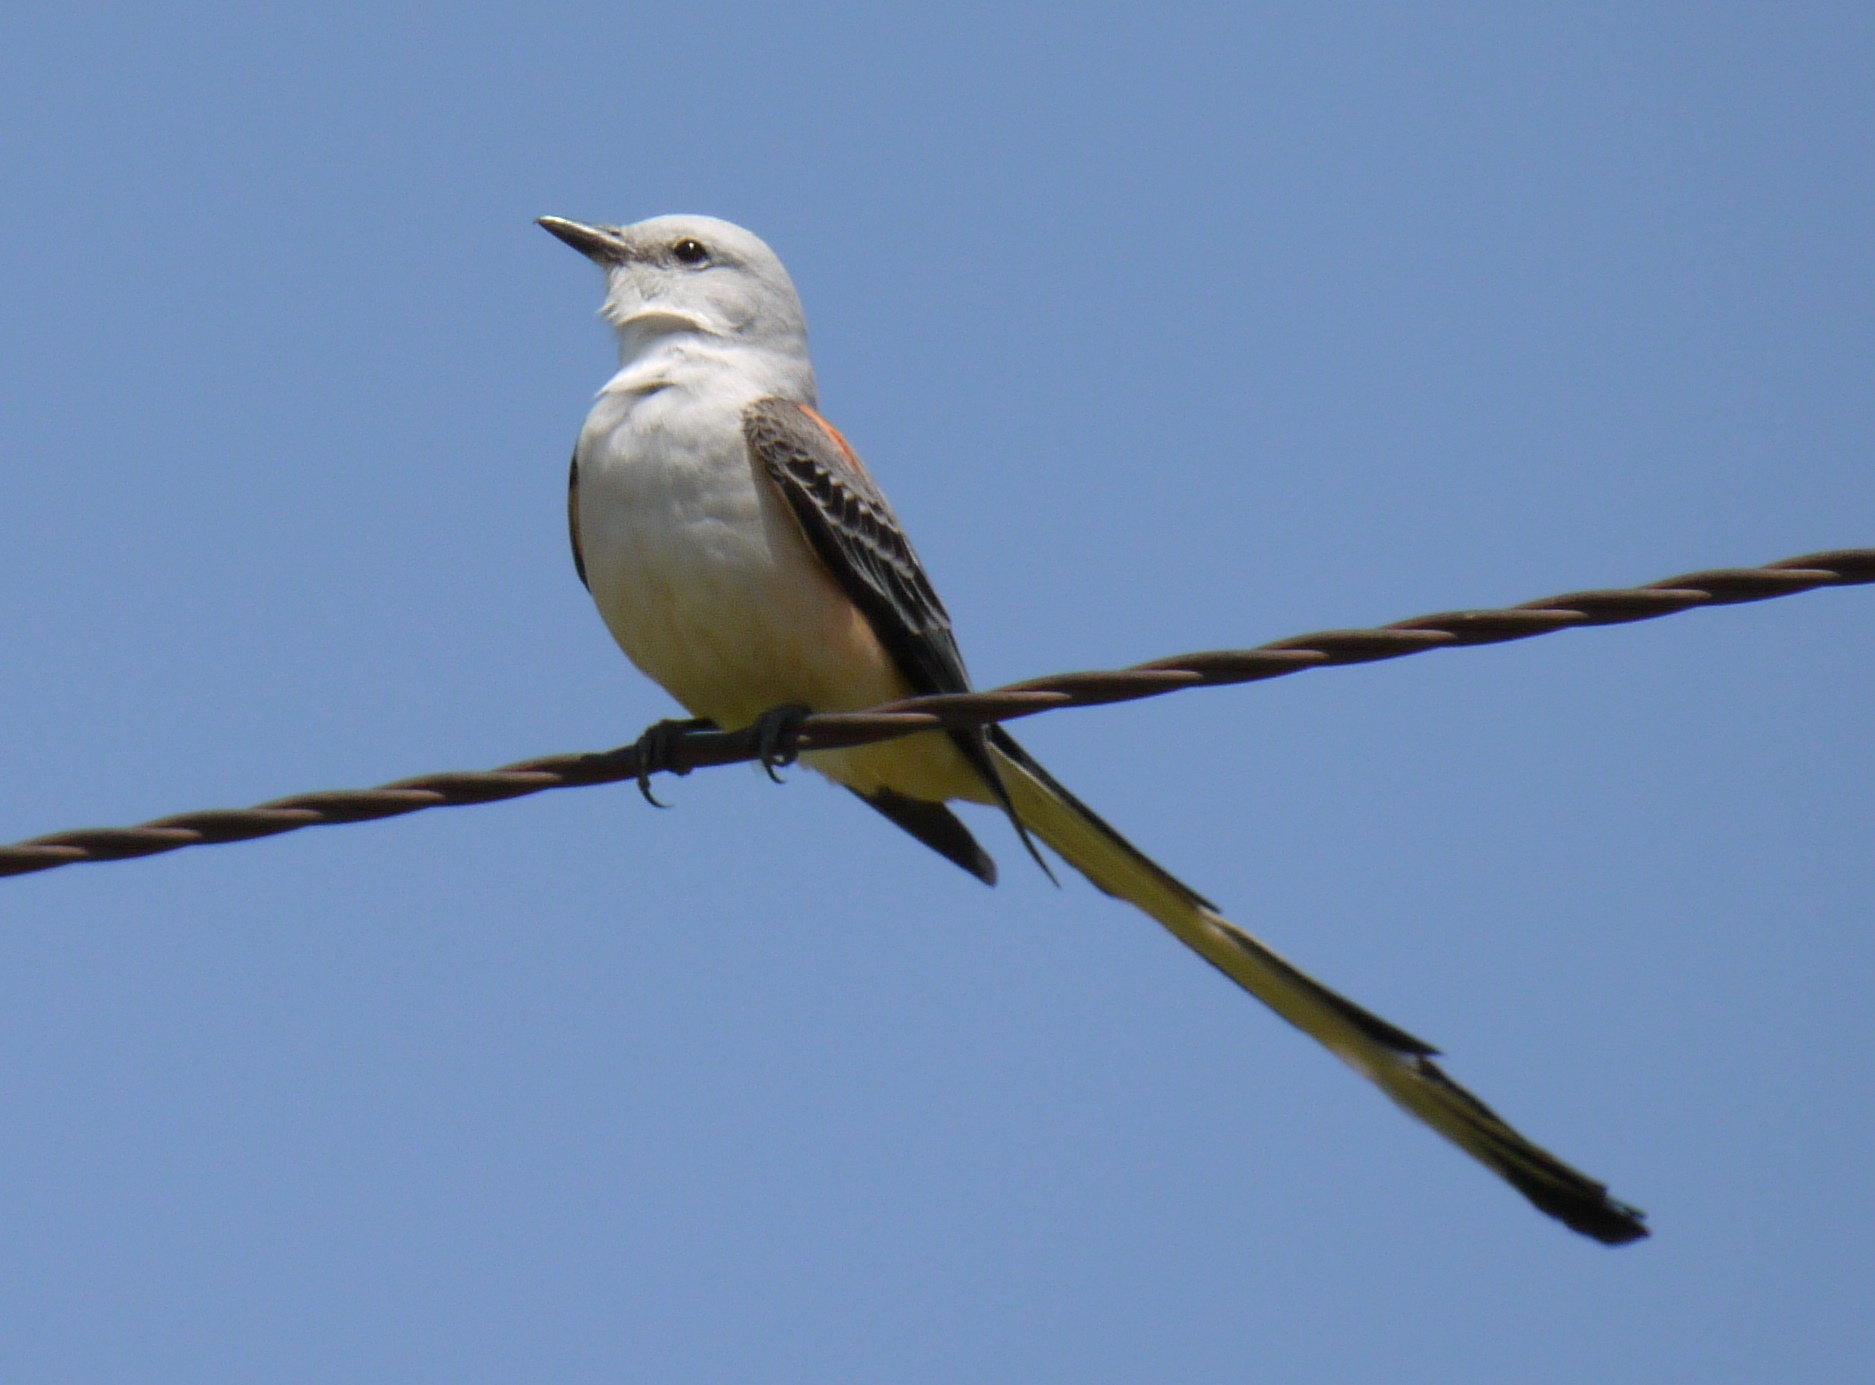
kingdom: Animalia
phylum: Chordata
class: Aves
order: Passeriformes
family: Tyrannidae
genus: Tyrannus
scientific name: Tyrannus forficatus
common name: Scissor-tailed flycatcher
